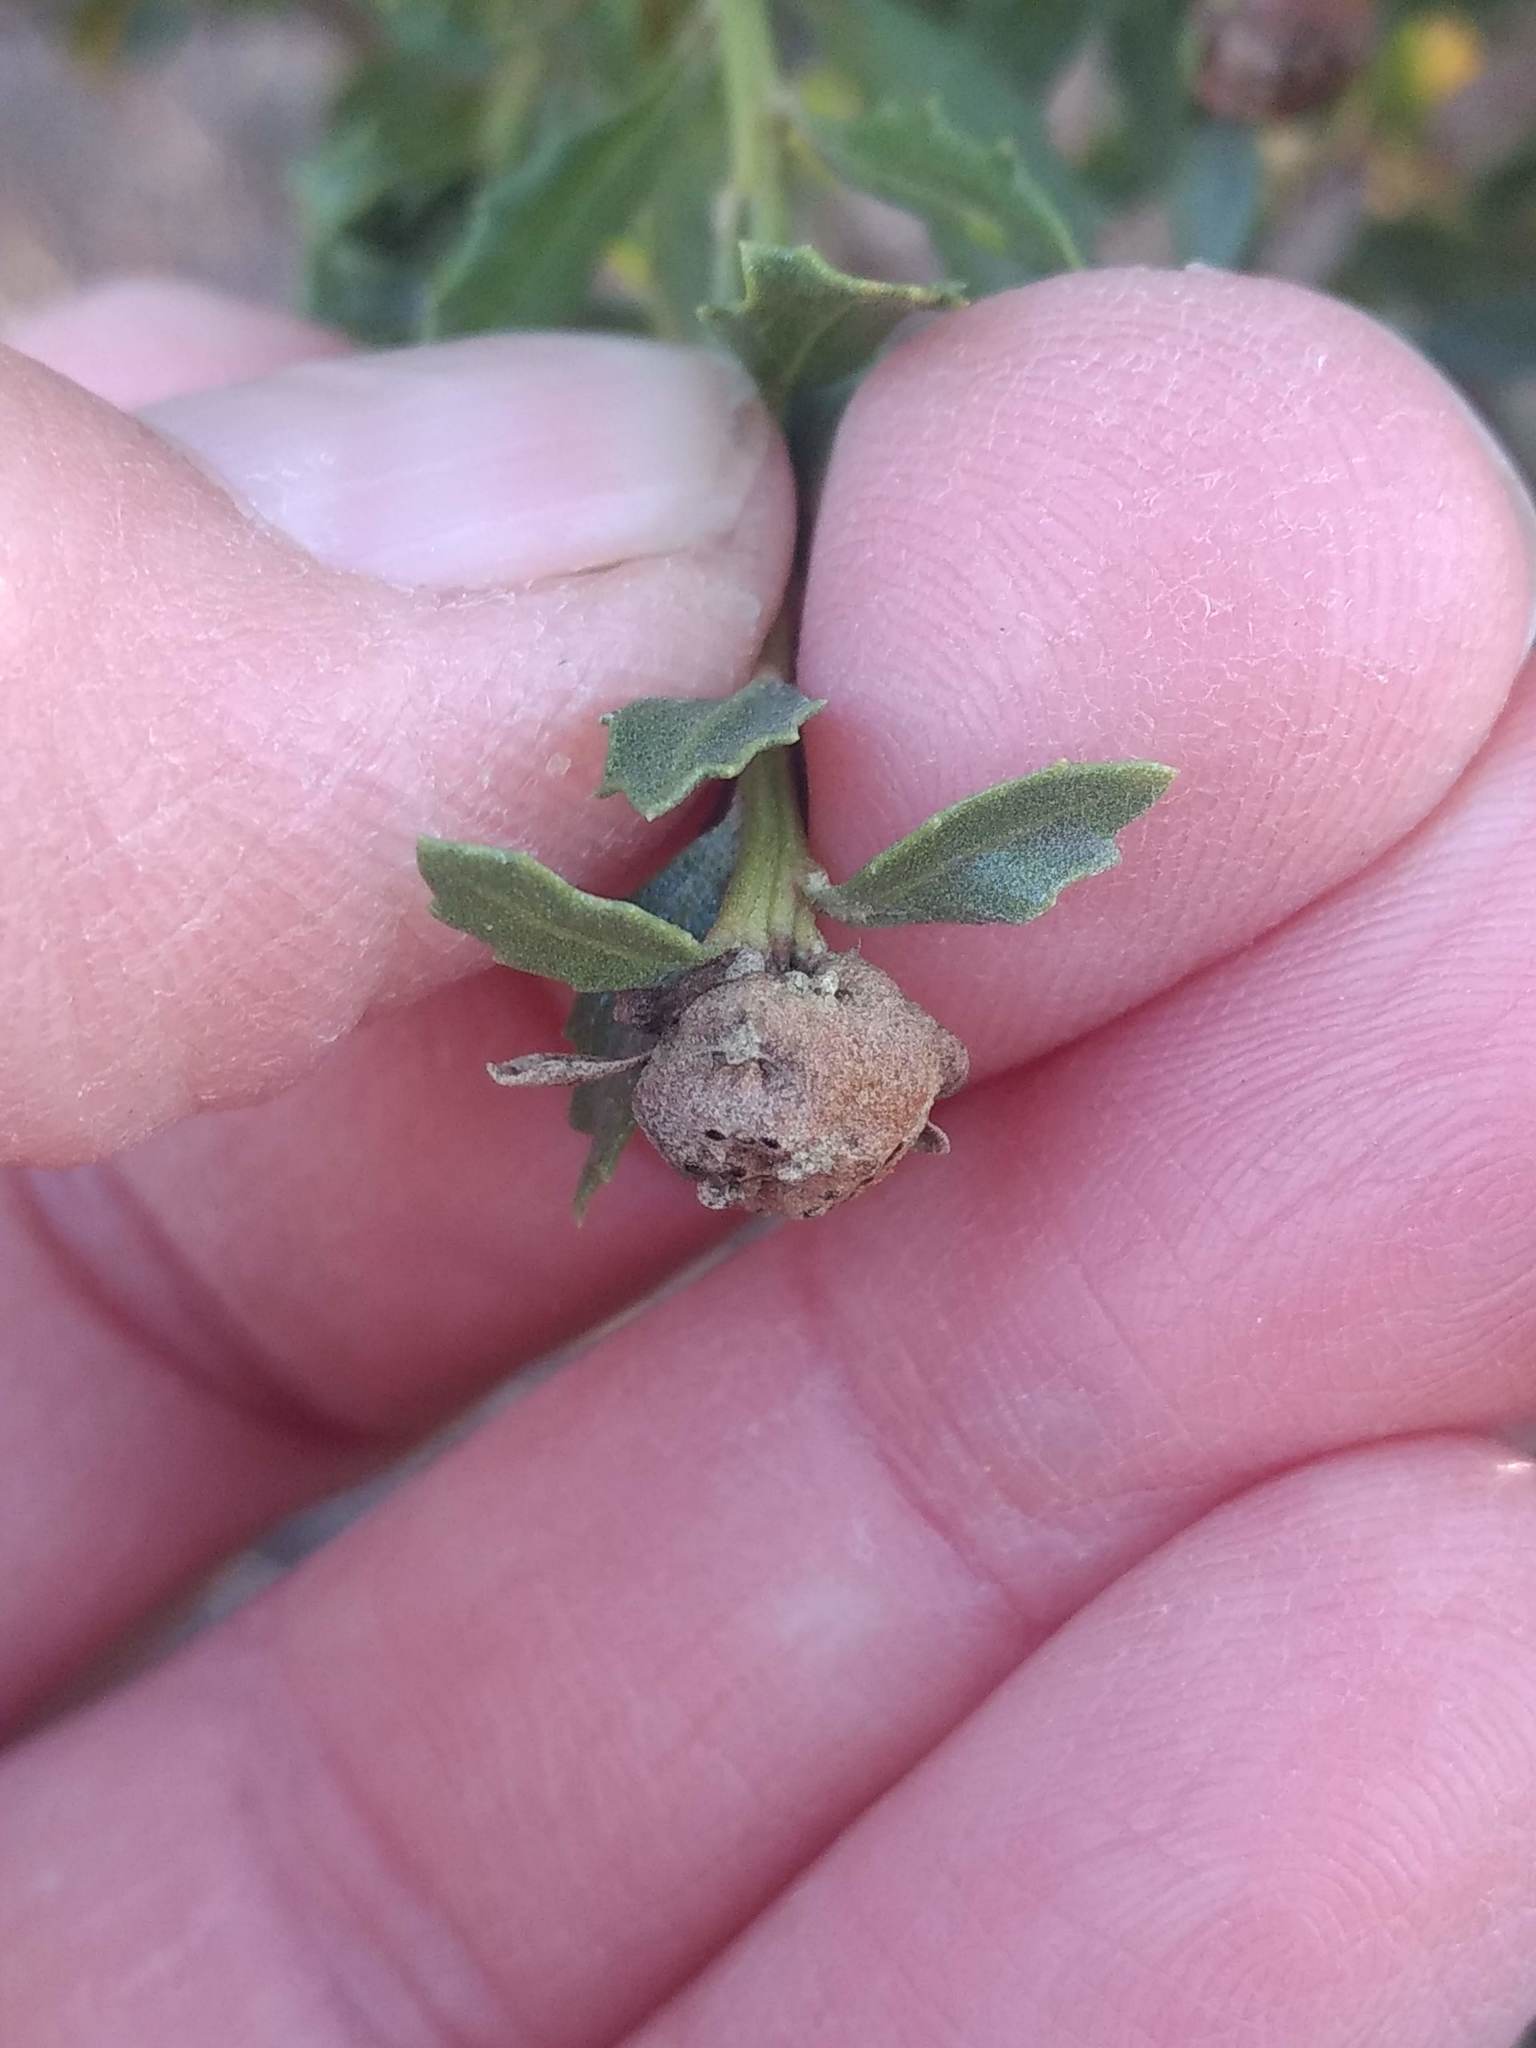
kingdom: Animalia
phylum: Arthropoda
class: Insecta
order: Diptera
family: Cecidomyiidae
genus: Rhopalomyia
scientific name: Rhopalomyia californica
